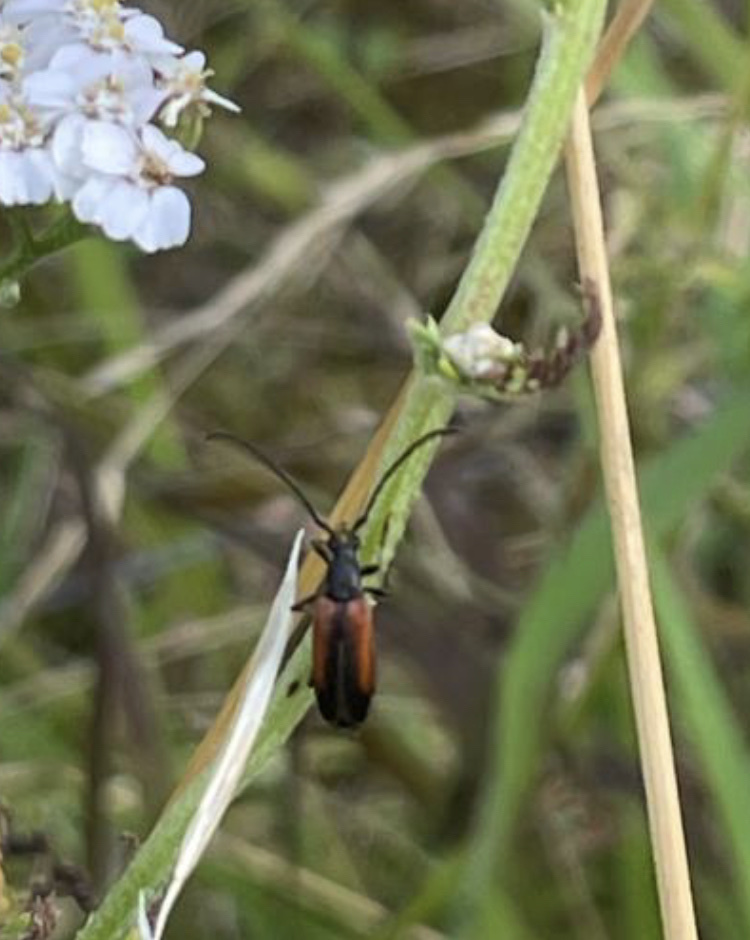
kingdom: Animalia
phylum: Arthropoda
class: Insecta
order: Coleoptera
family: Cerambycidae
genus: Stenurella
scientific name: Stenurella melanura
